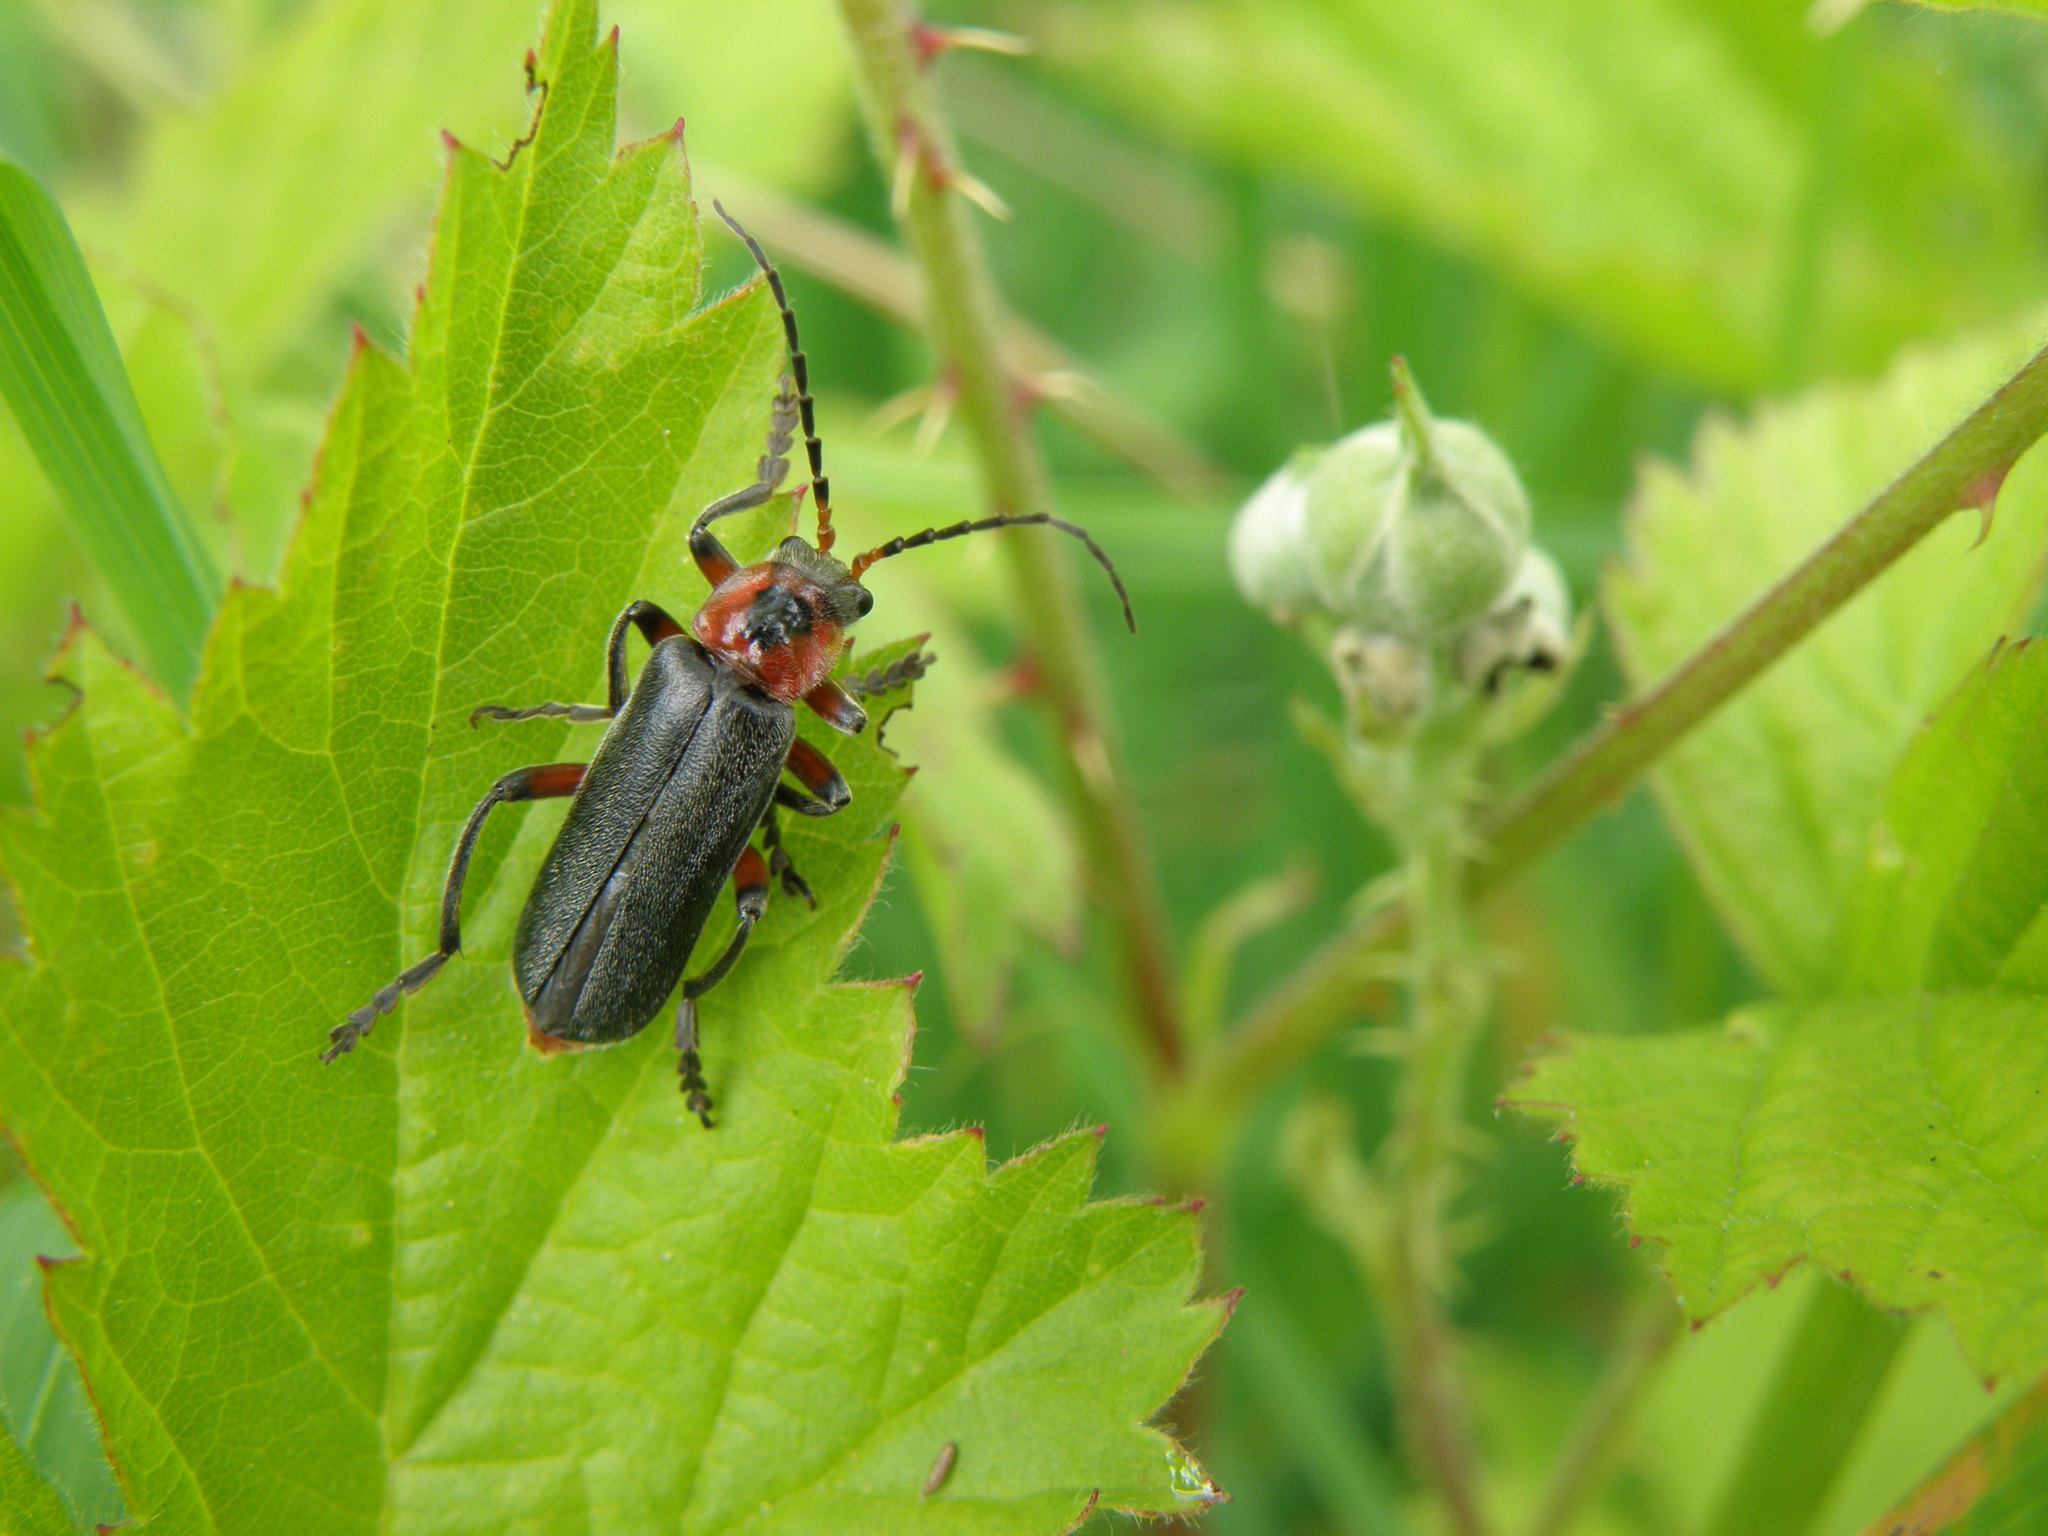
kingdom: Animalia
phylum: Arthropoda
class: Insecta
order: Coleoptera
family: Cantharidae
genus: Cantharis
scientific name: Cantharis rustica
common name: Soldier beetle
